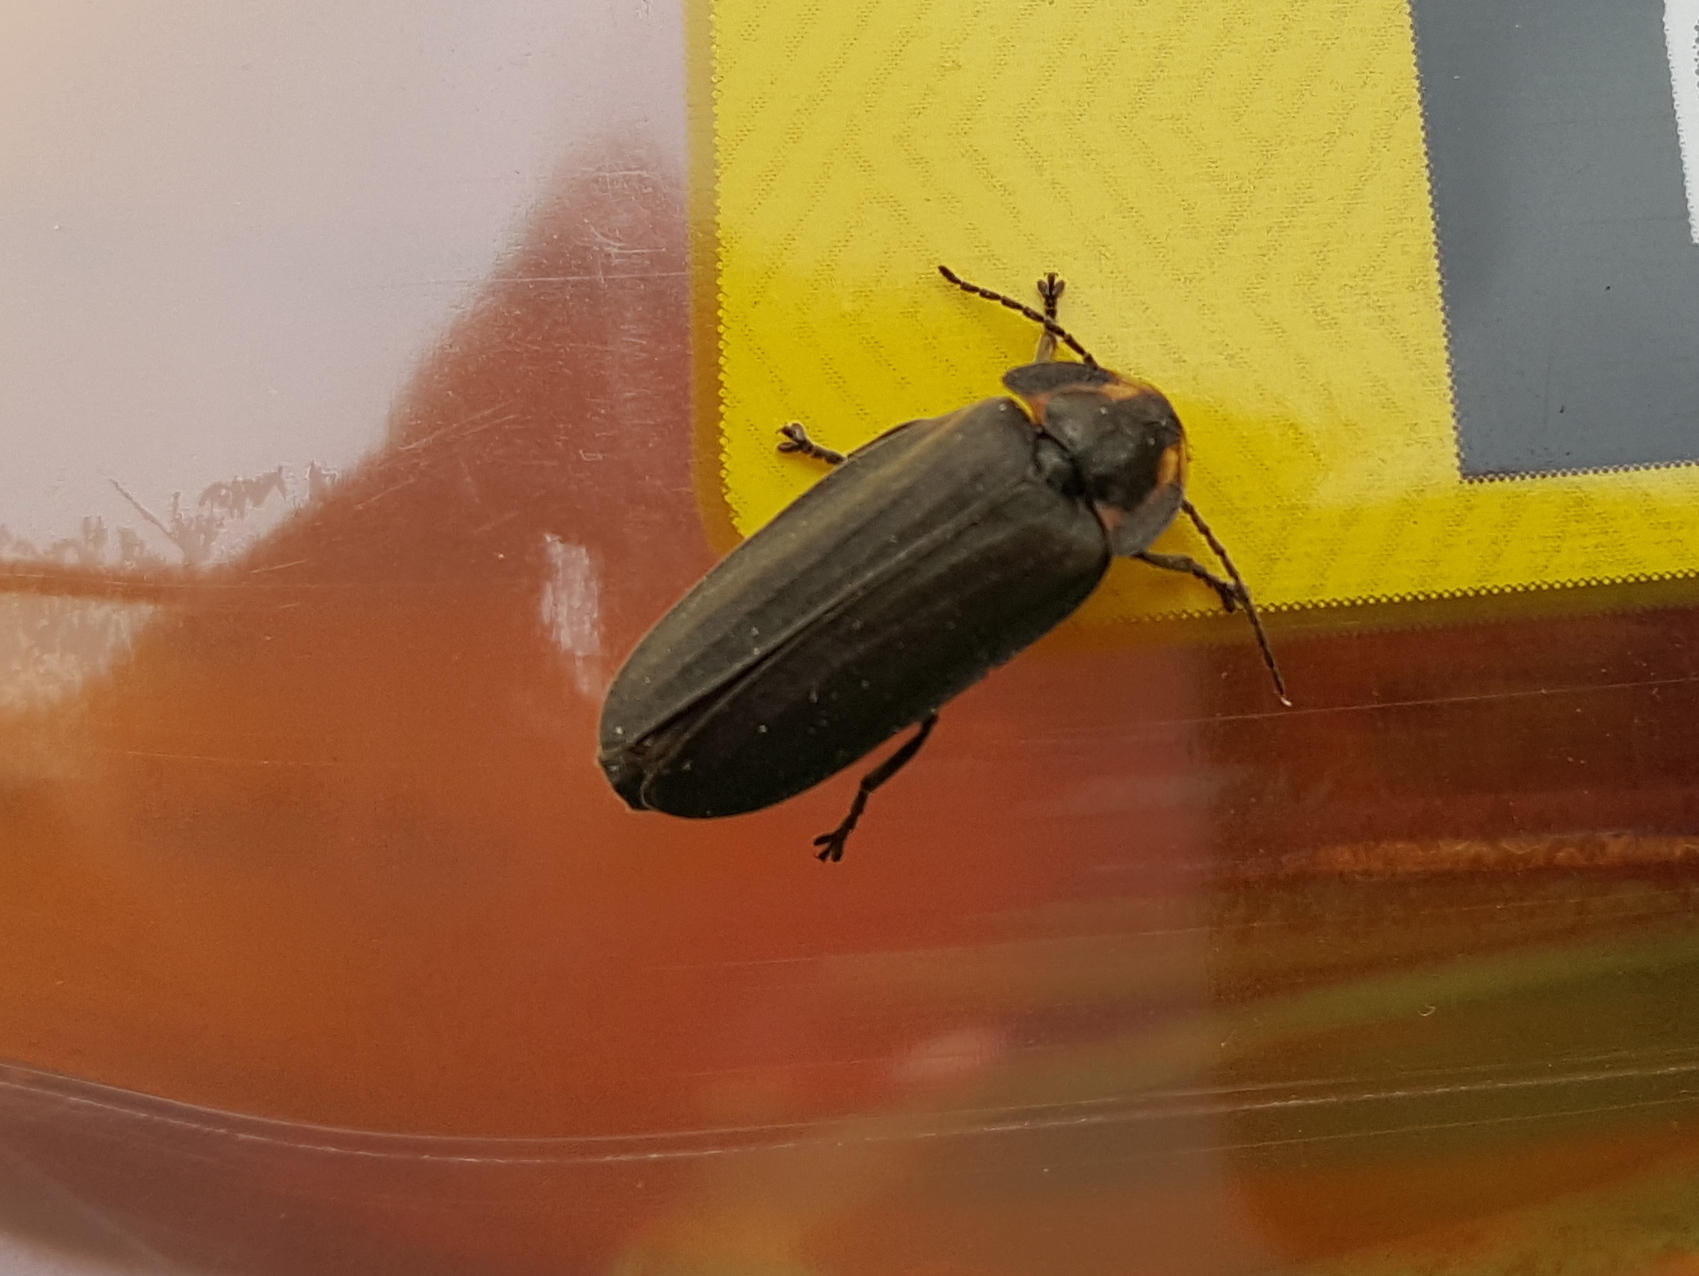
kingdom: Animalia
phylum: Arthropoda
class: Insecta
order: Coleoptera
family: Lampyridae
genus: Photinus
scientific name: Photinus corrusca
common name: Winter firefly
